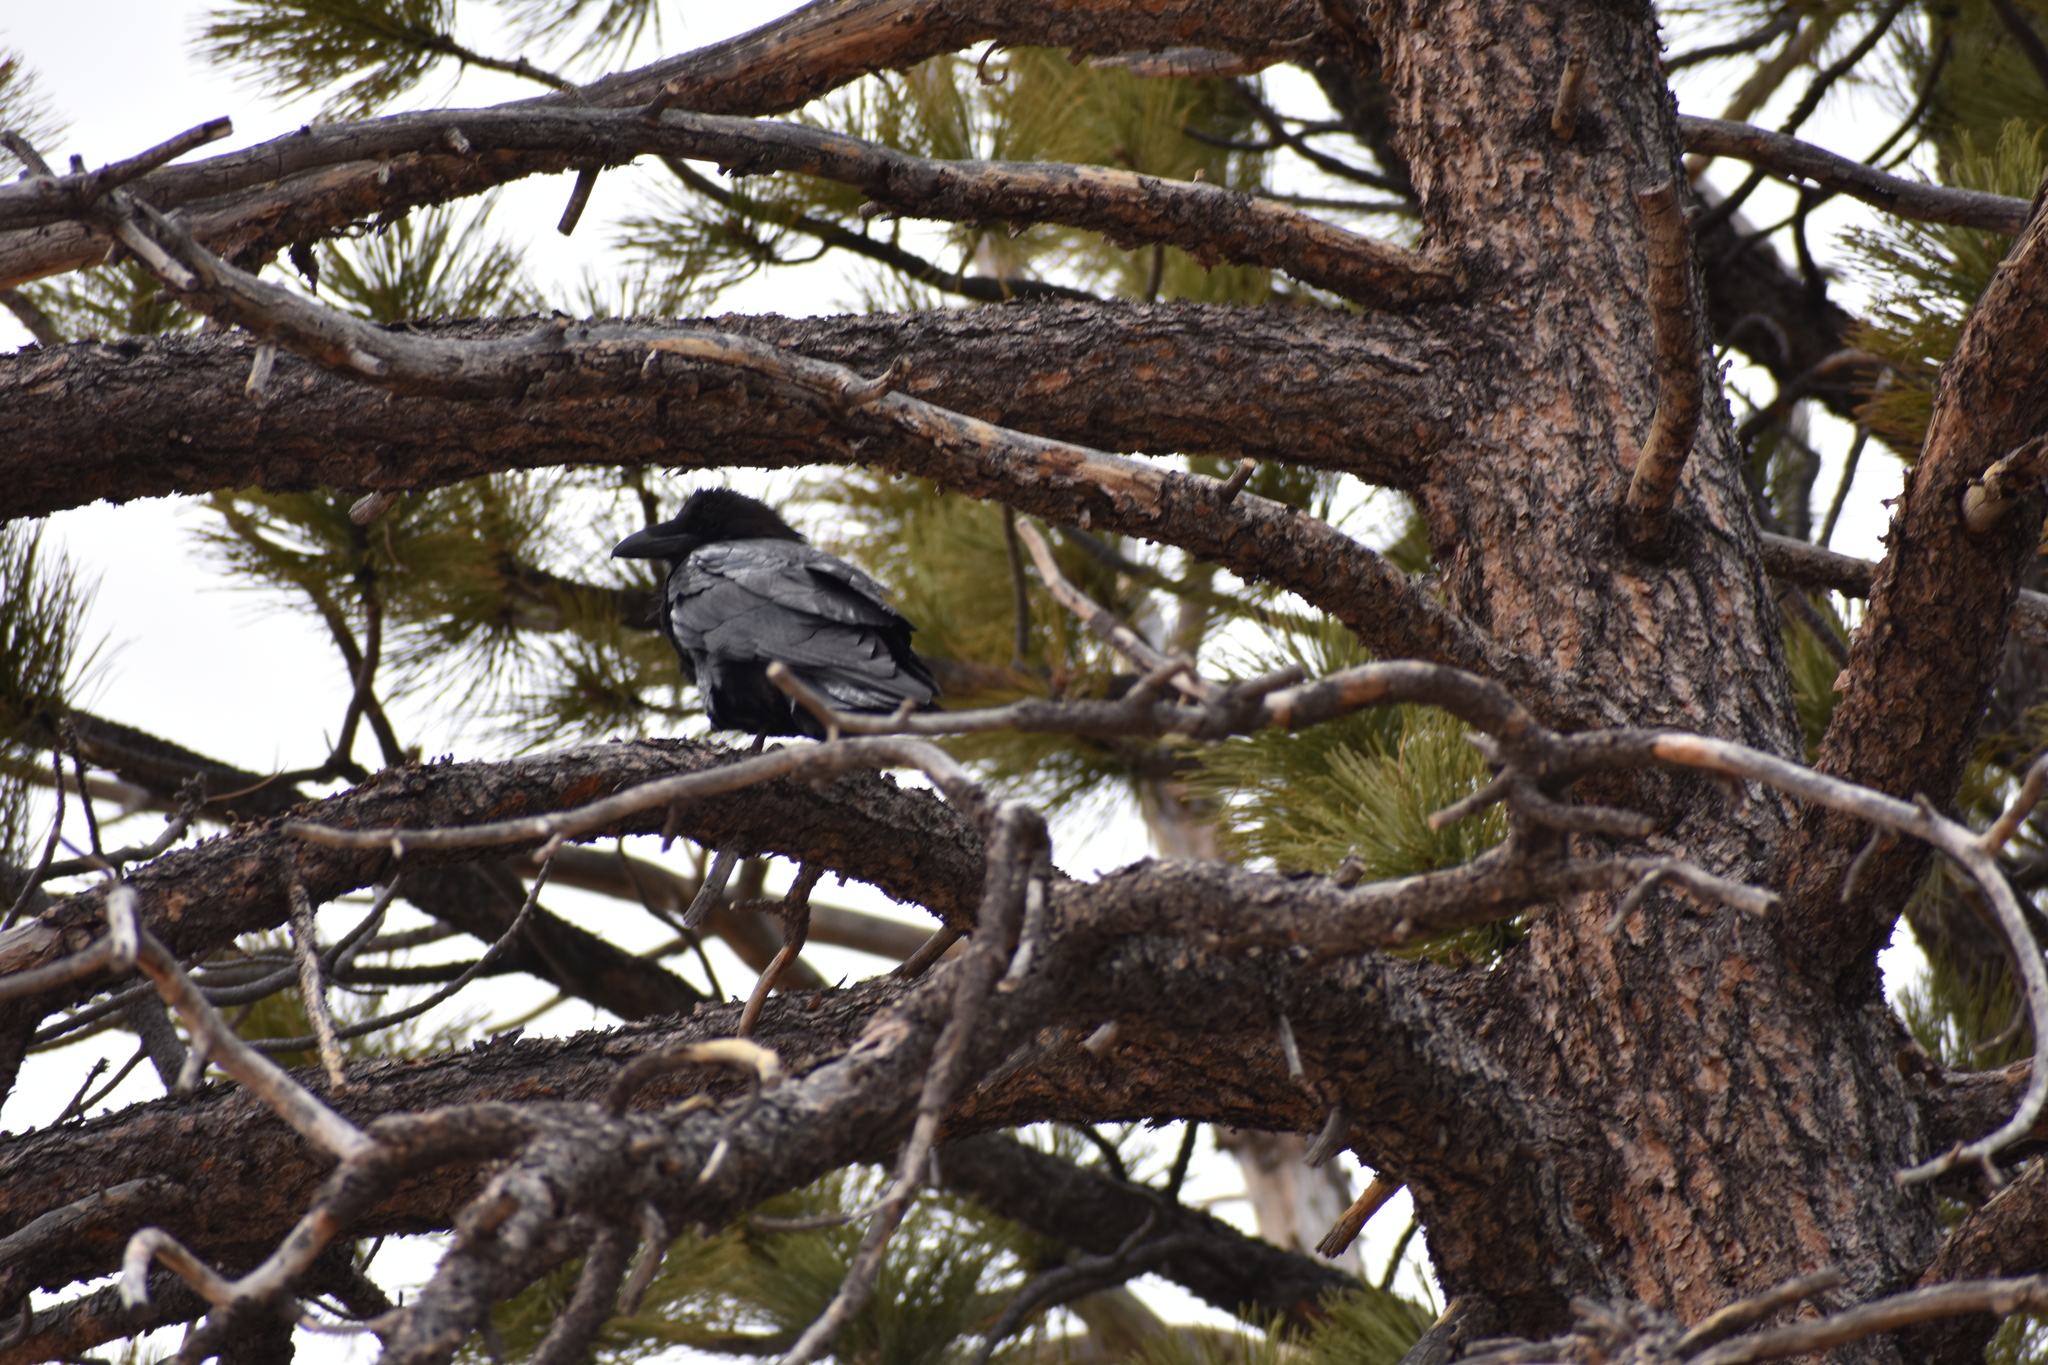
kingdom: Animalia
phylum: Chordata
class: Aves
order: Passeriformes
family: Corvidae
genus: Corvus
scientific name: Corvus corax
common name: Common raven
